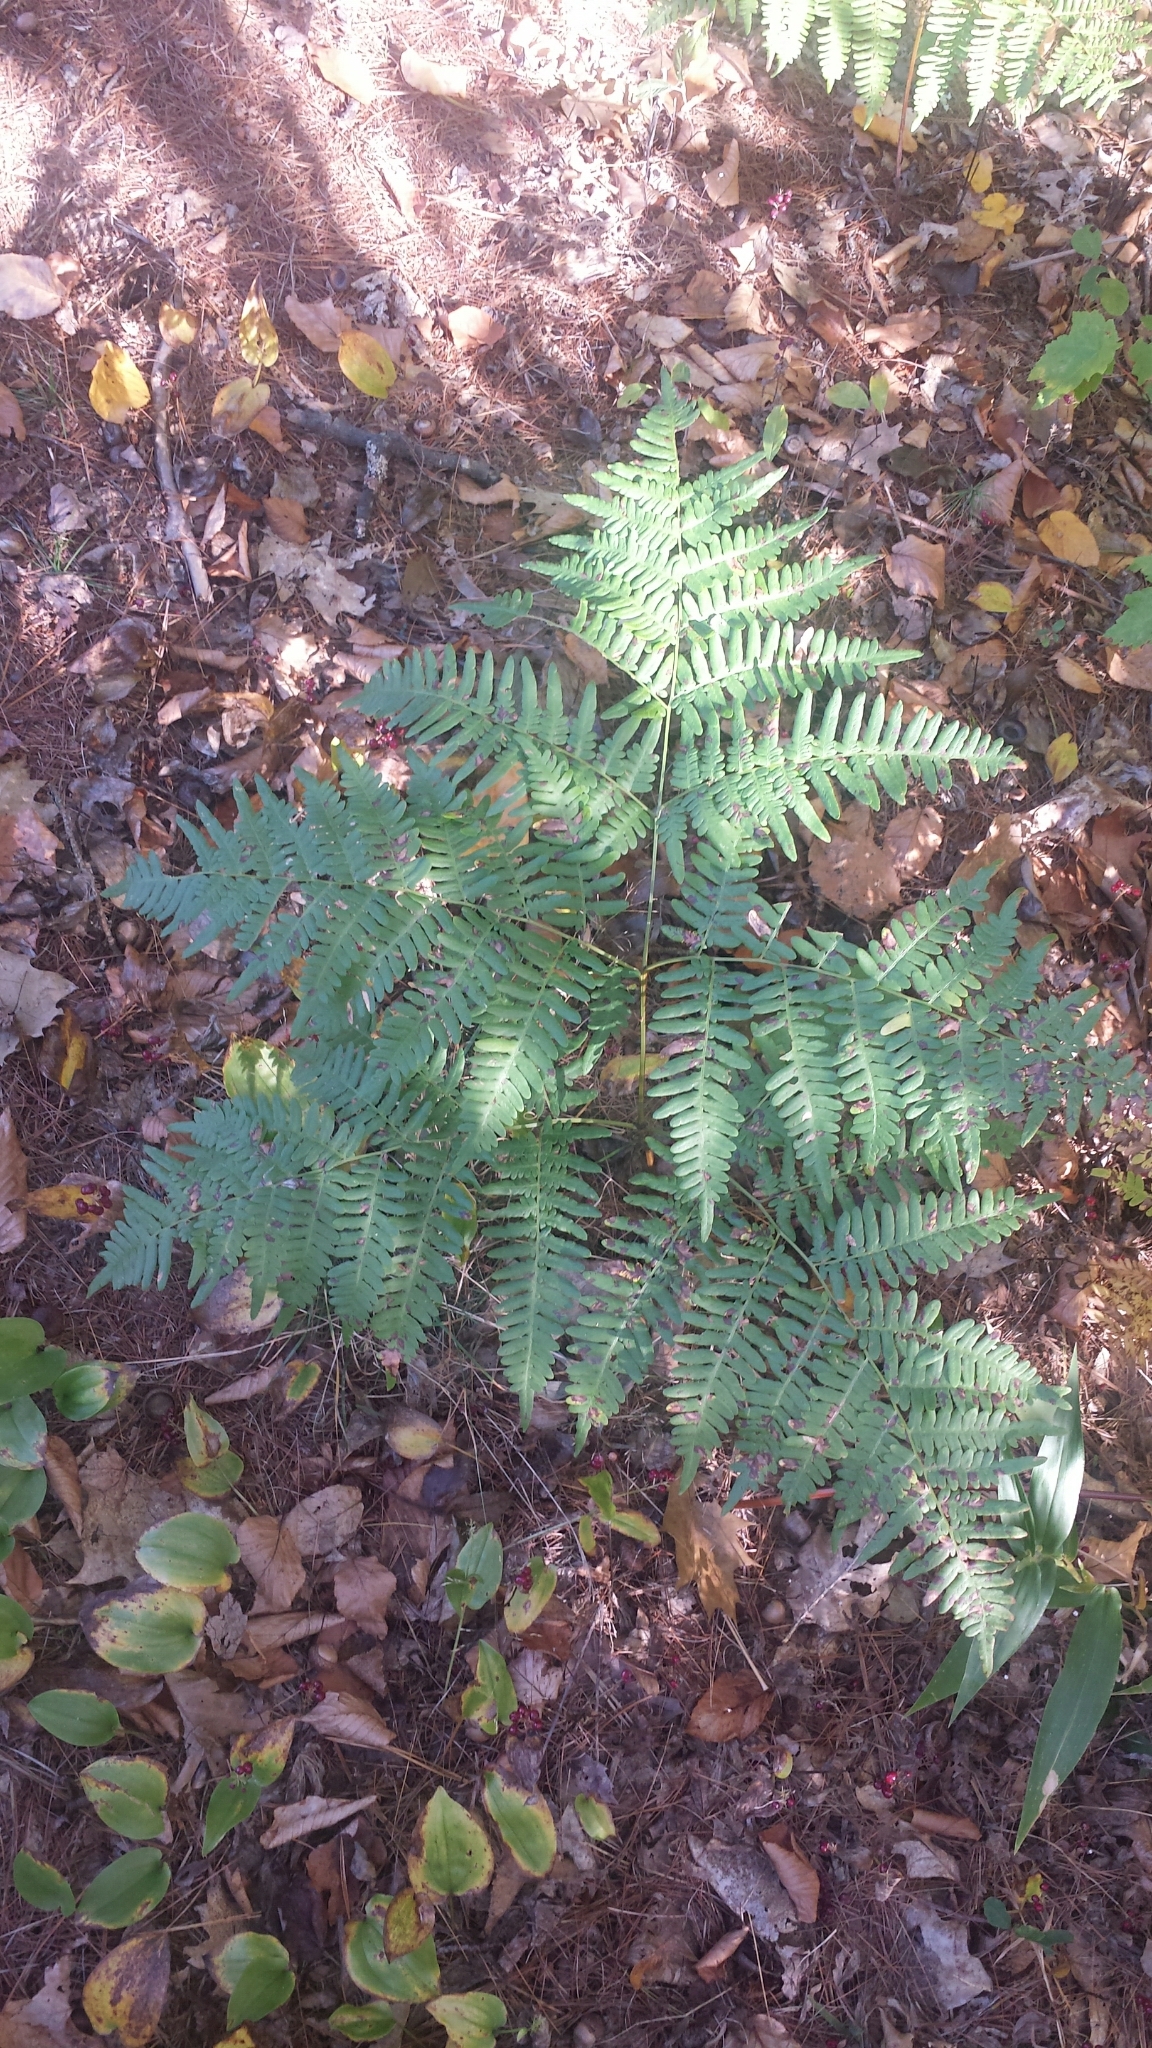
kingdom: Plantae
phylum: Tracheophyta
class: Polypodiopsida
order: Polypodiales
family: Dennstaedtiaceae
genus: Pteridium
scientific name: Pteridium aquilinum
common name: Bracken
